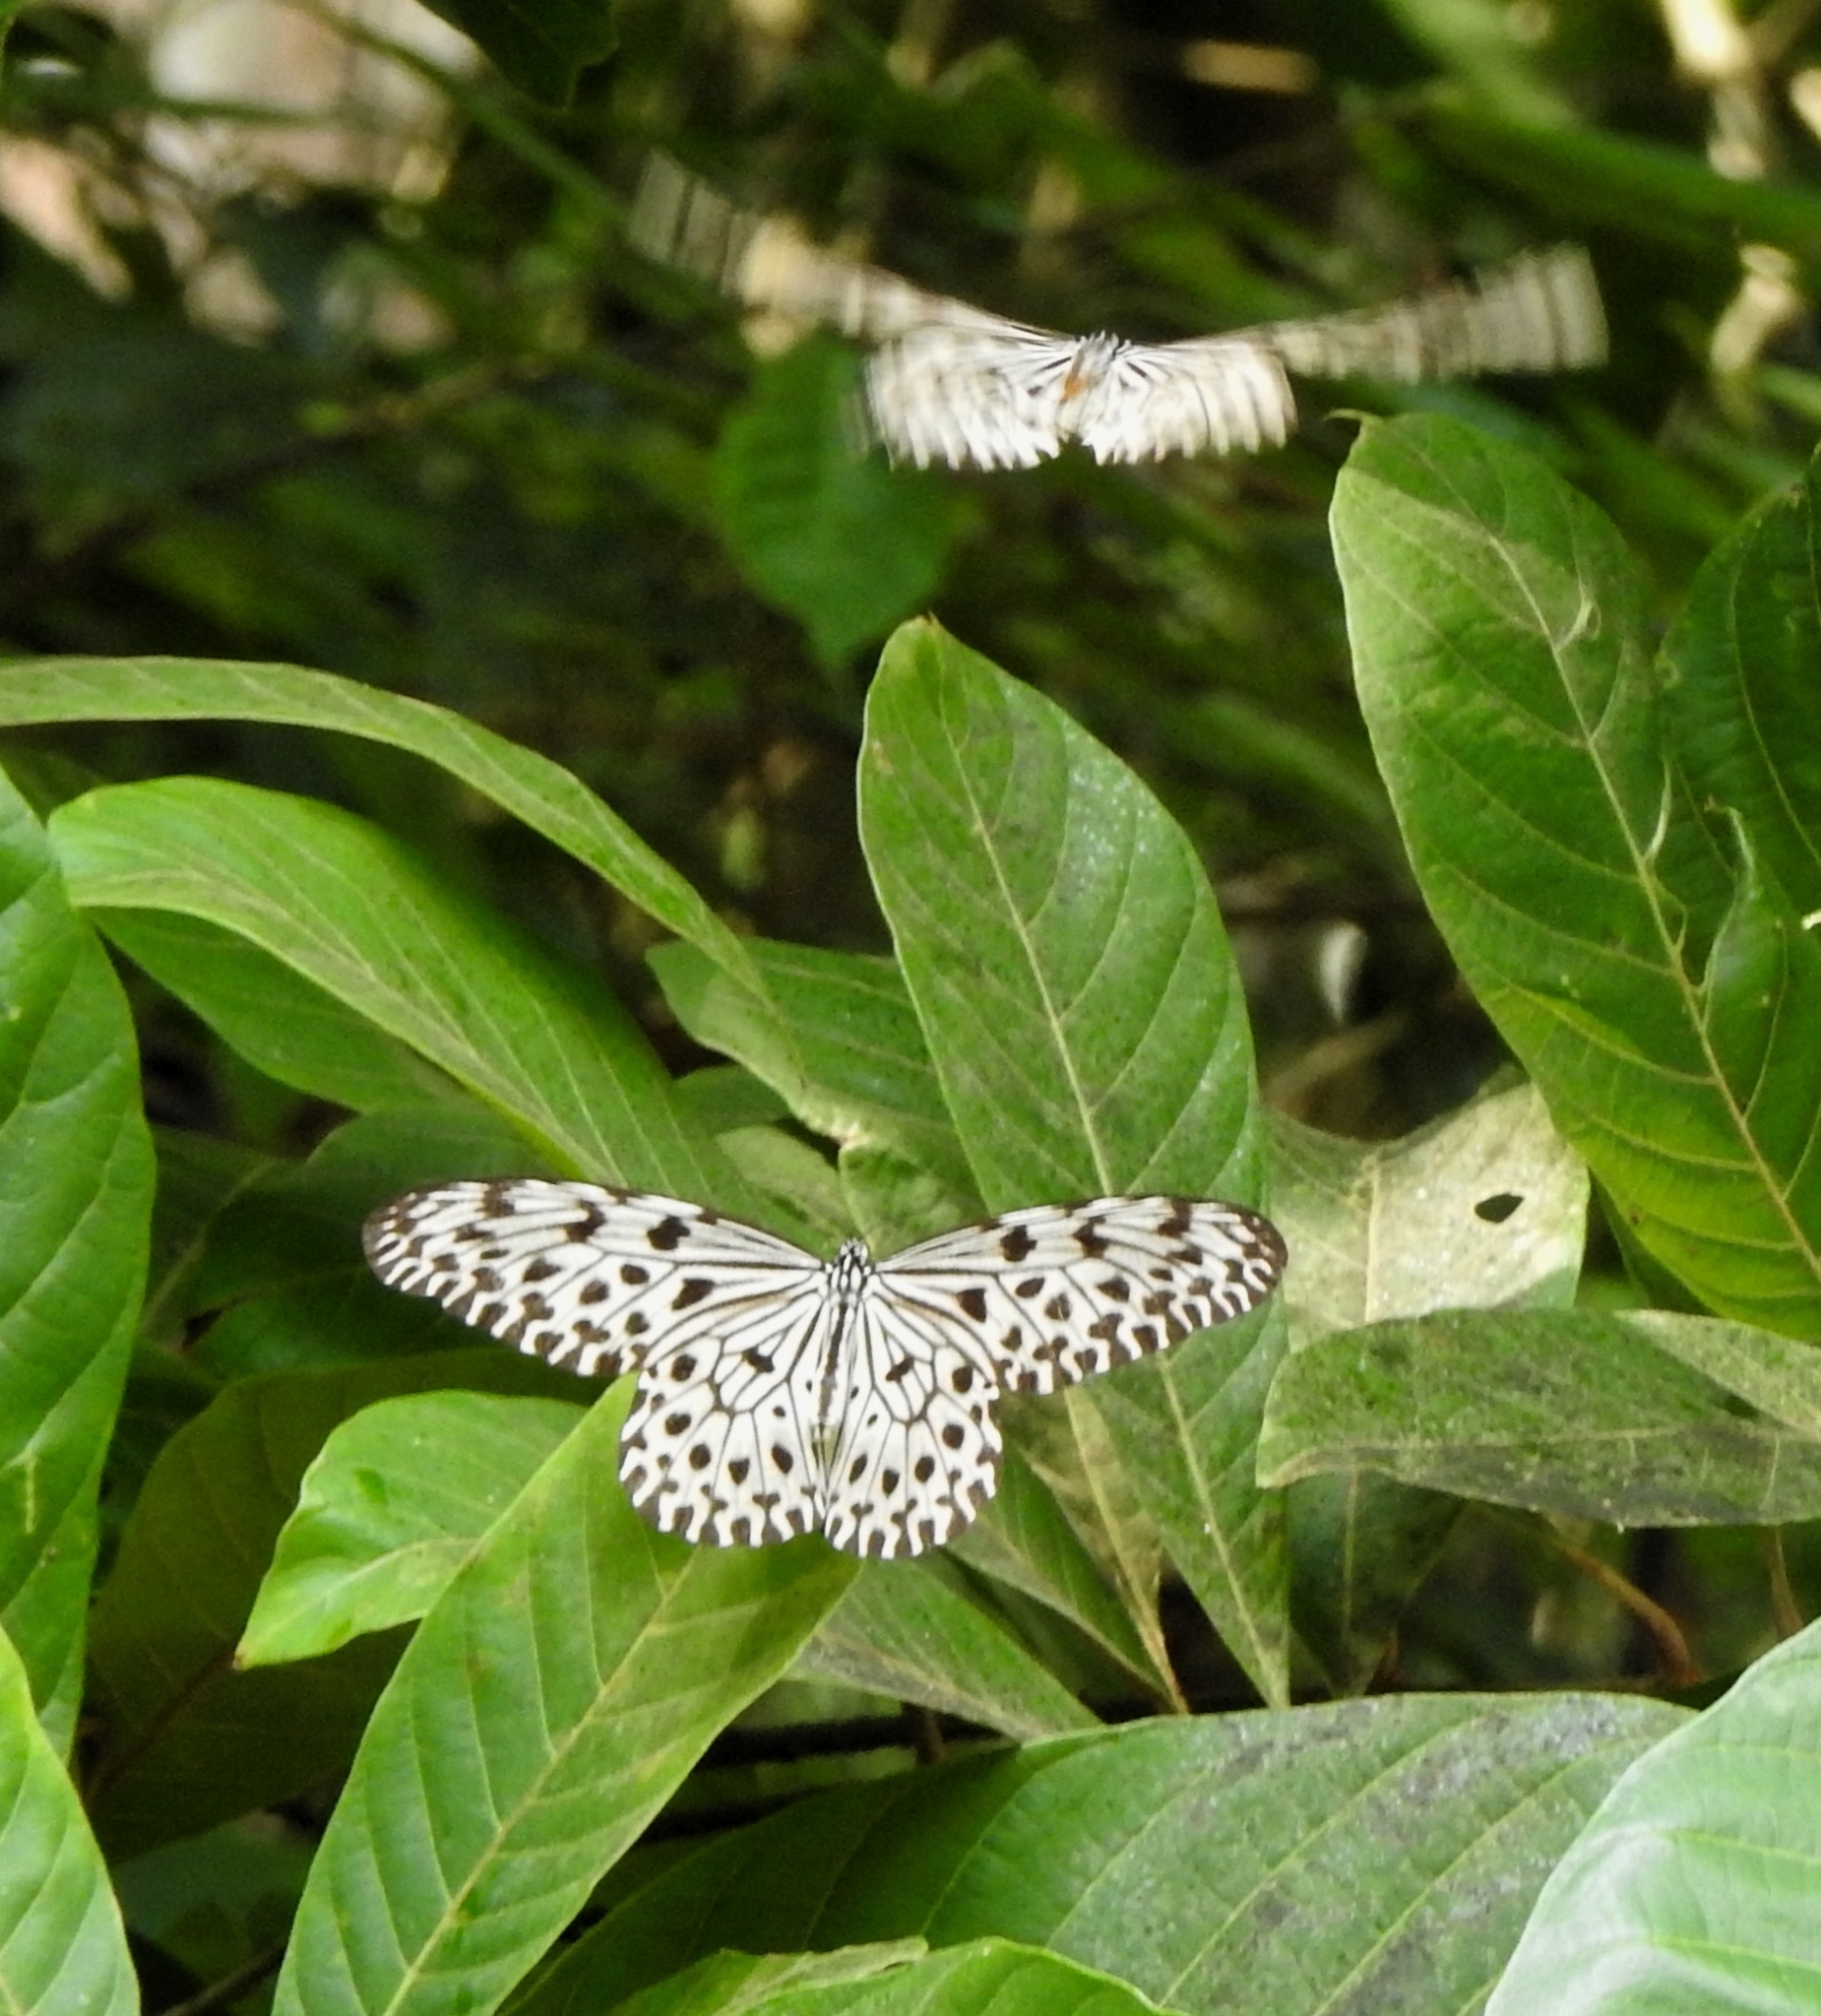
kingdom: Animalia
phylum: Arthropoda
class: Insecta
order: Lepidoptera
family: Nymphalidae
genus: Idea
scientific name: Idea malabarica
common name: Malabar tree-nymph
